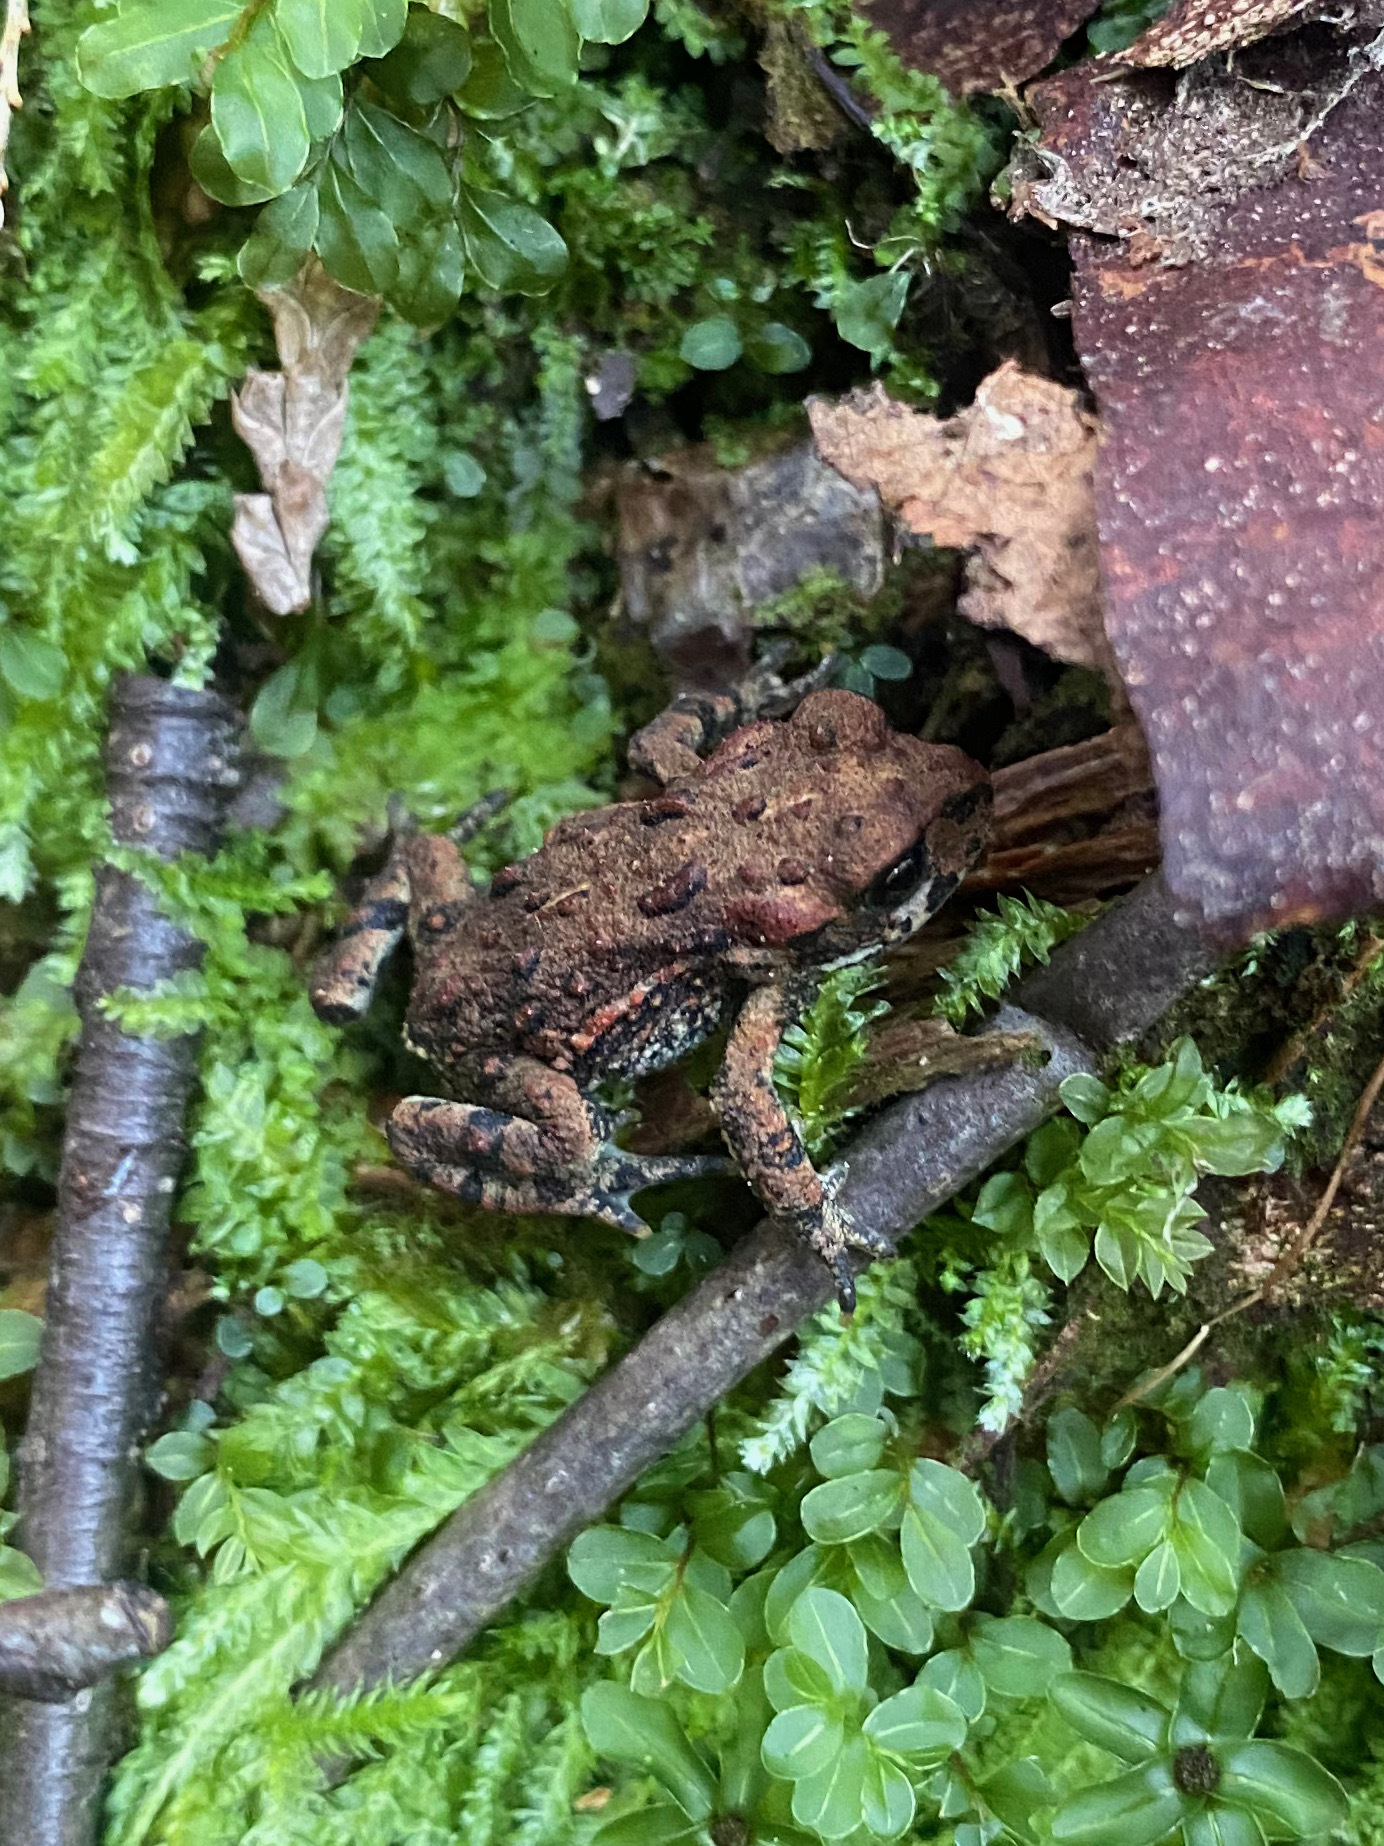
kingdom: Animalia
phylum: Chordata
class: Amphibia
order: Anura
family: Bufonidae
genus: Anaxyrus
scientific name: Anaxyrus boreas
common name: Western toad
